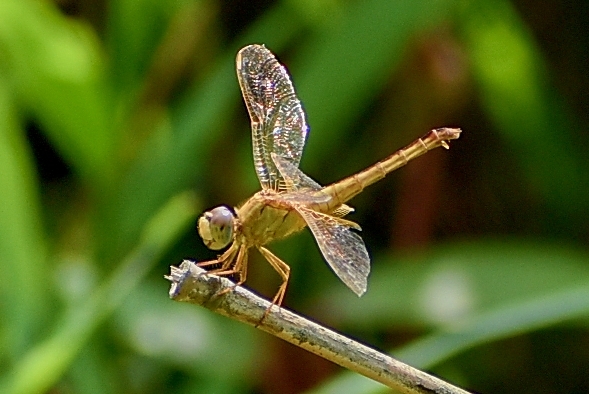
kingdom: Animalia
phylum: Arthropoda
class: Insecta
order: Odonata
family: Libellulidae
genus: Crocothemis
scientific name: Crocothemis servilia
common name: Scarlet skimmer
